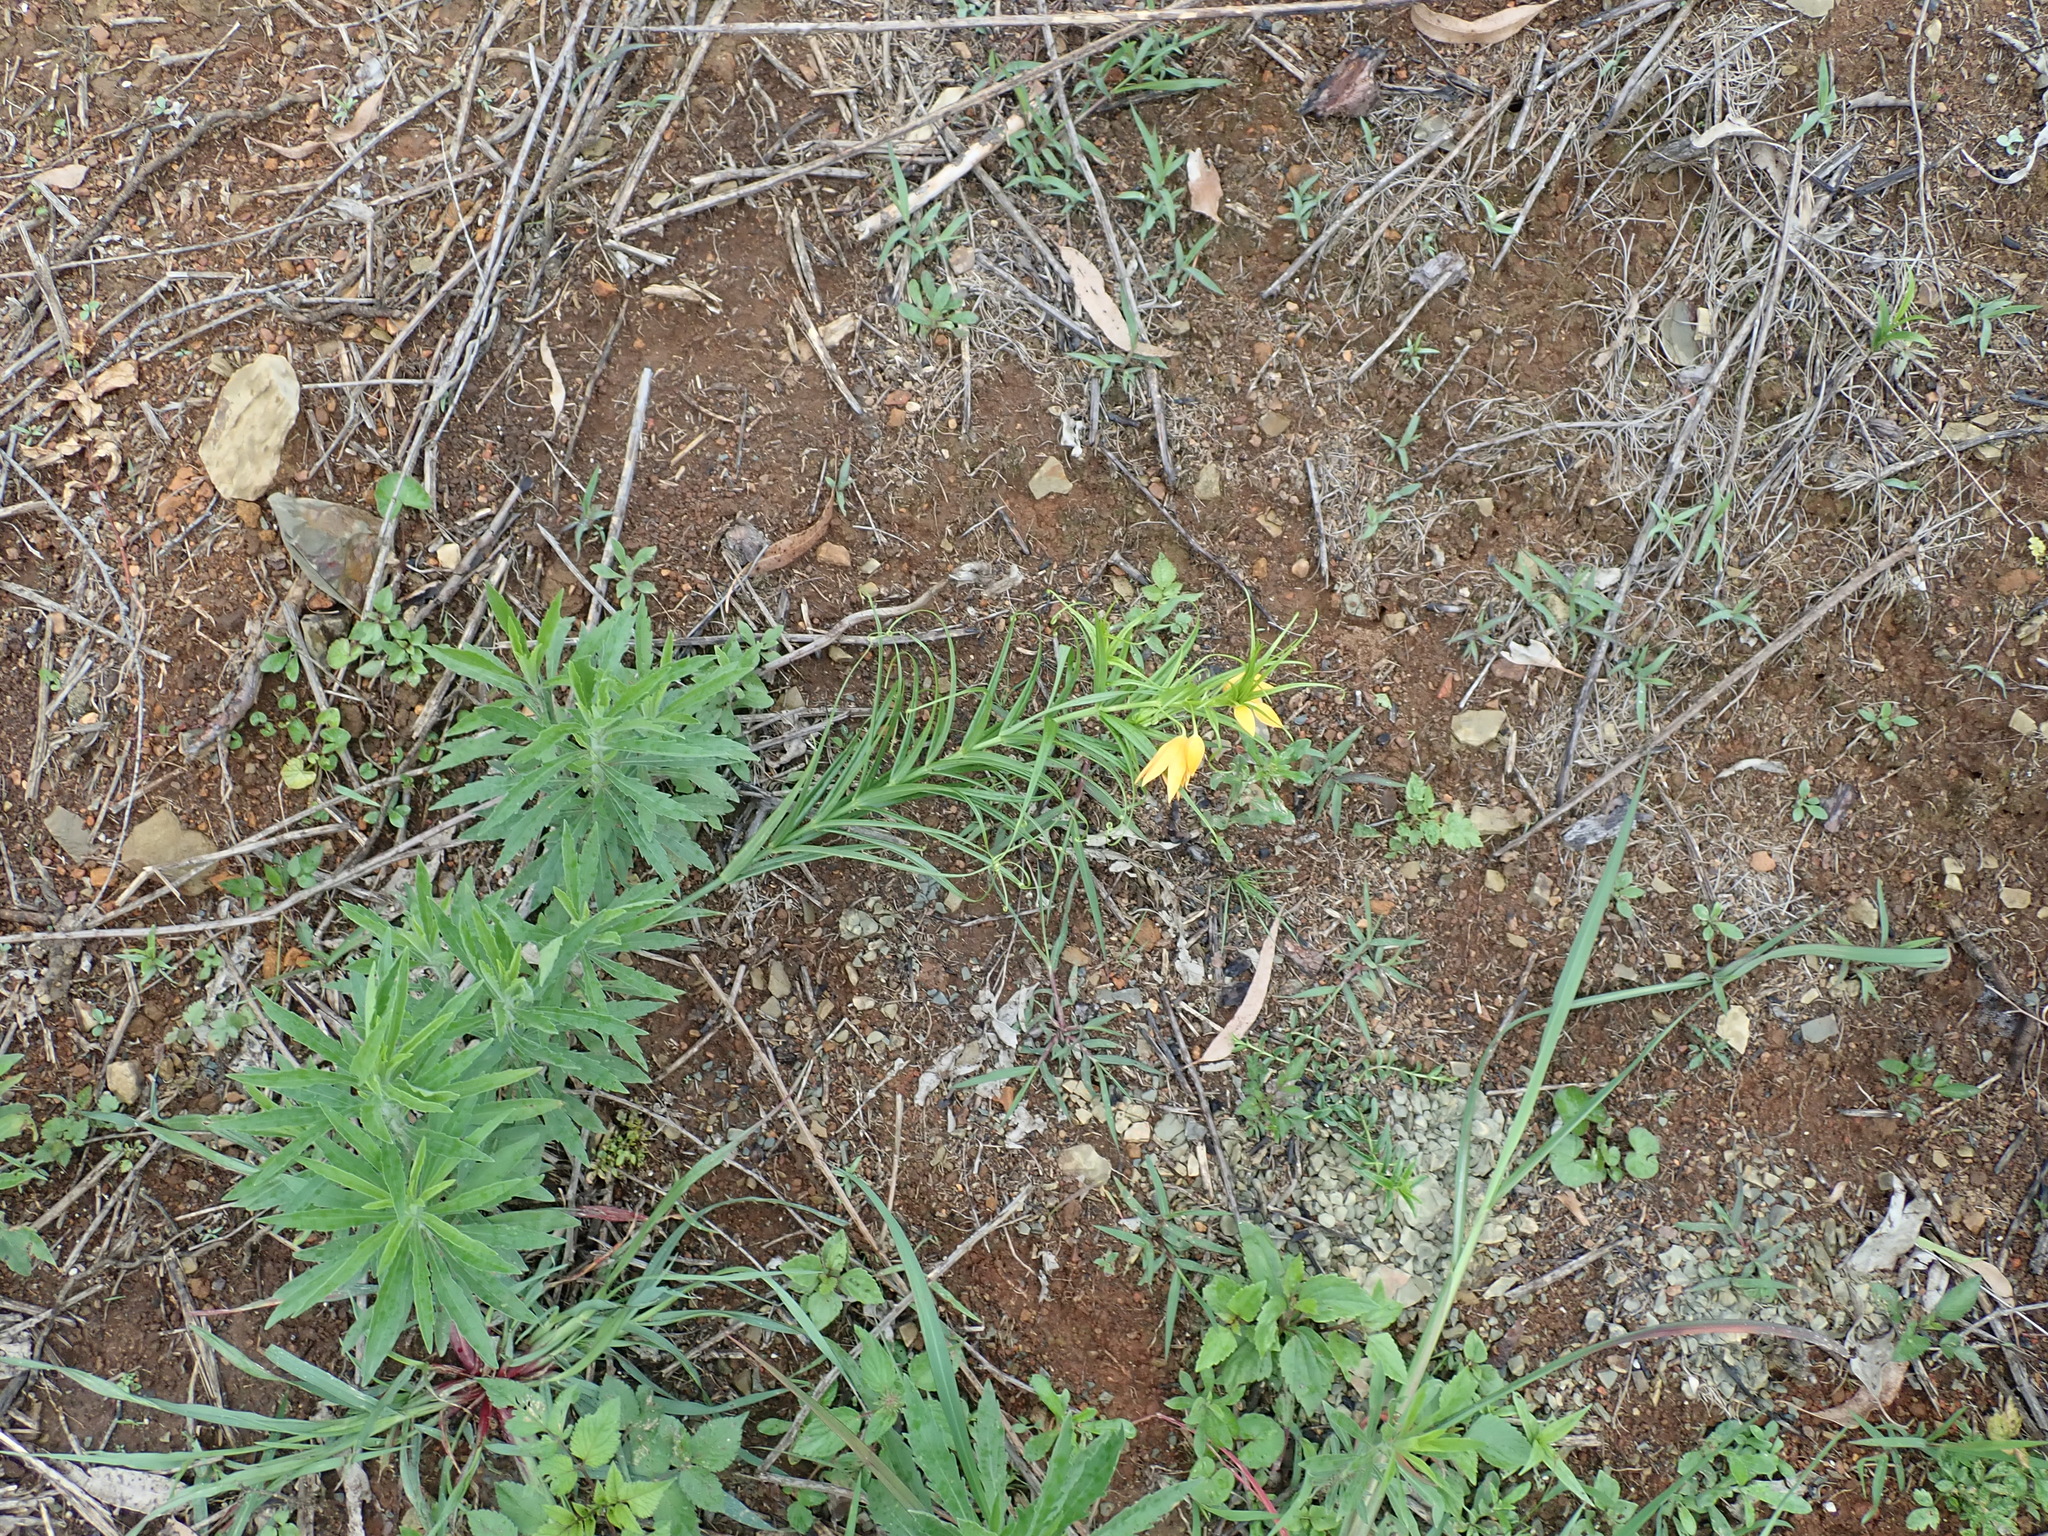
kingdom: Plantae
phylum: Tracheophyta
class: Liliopsida
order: Liliales
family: Colchicaceae
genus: Gloriosa
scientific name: Gloriosa modesta
